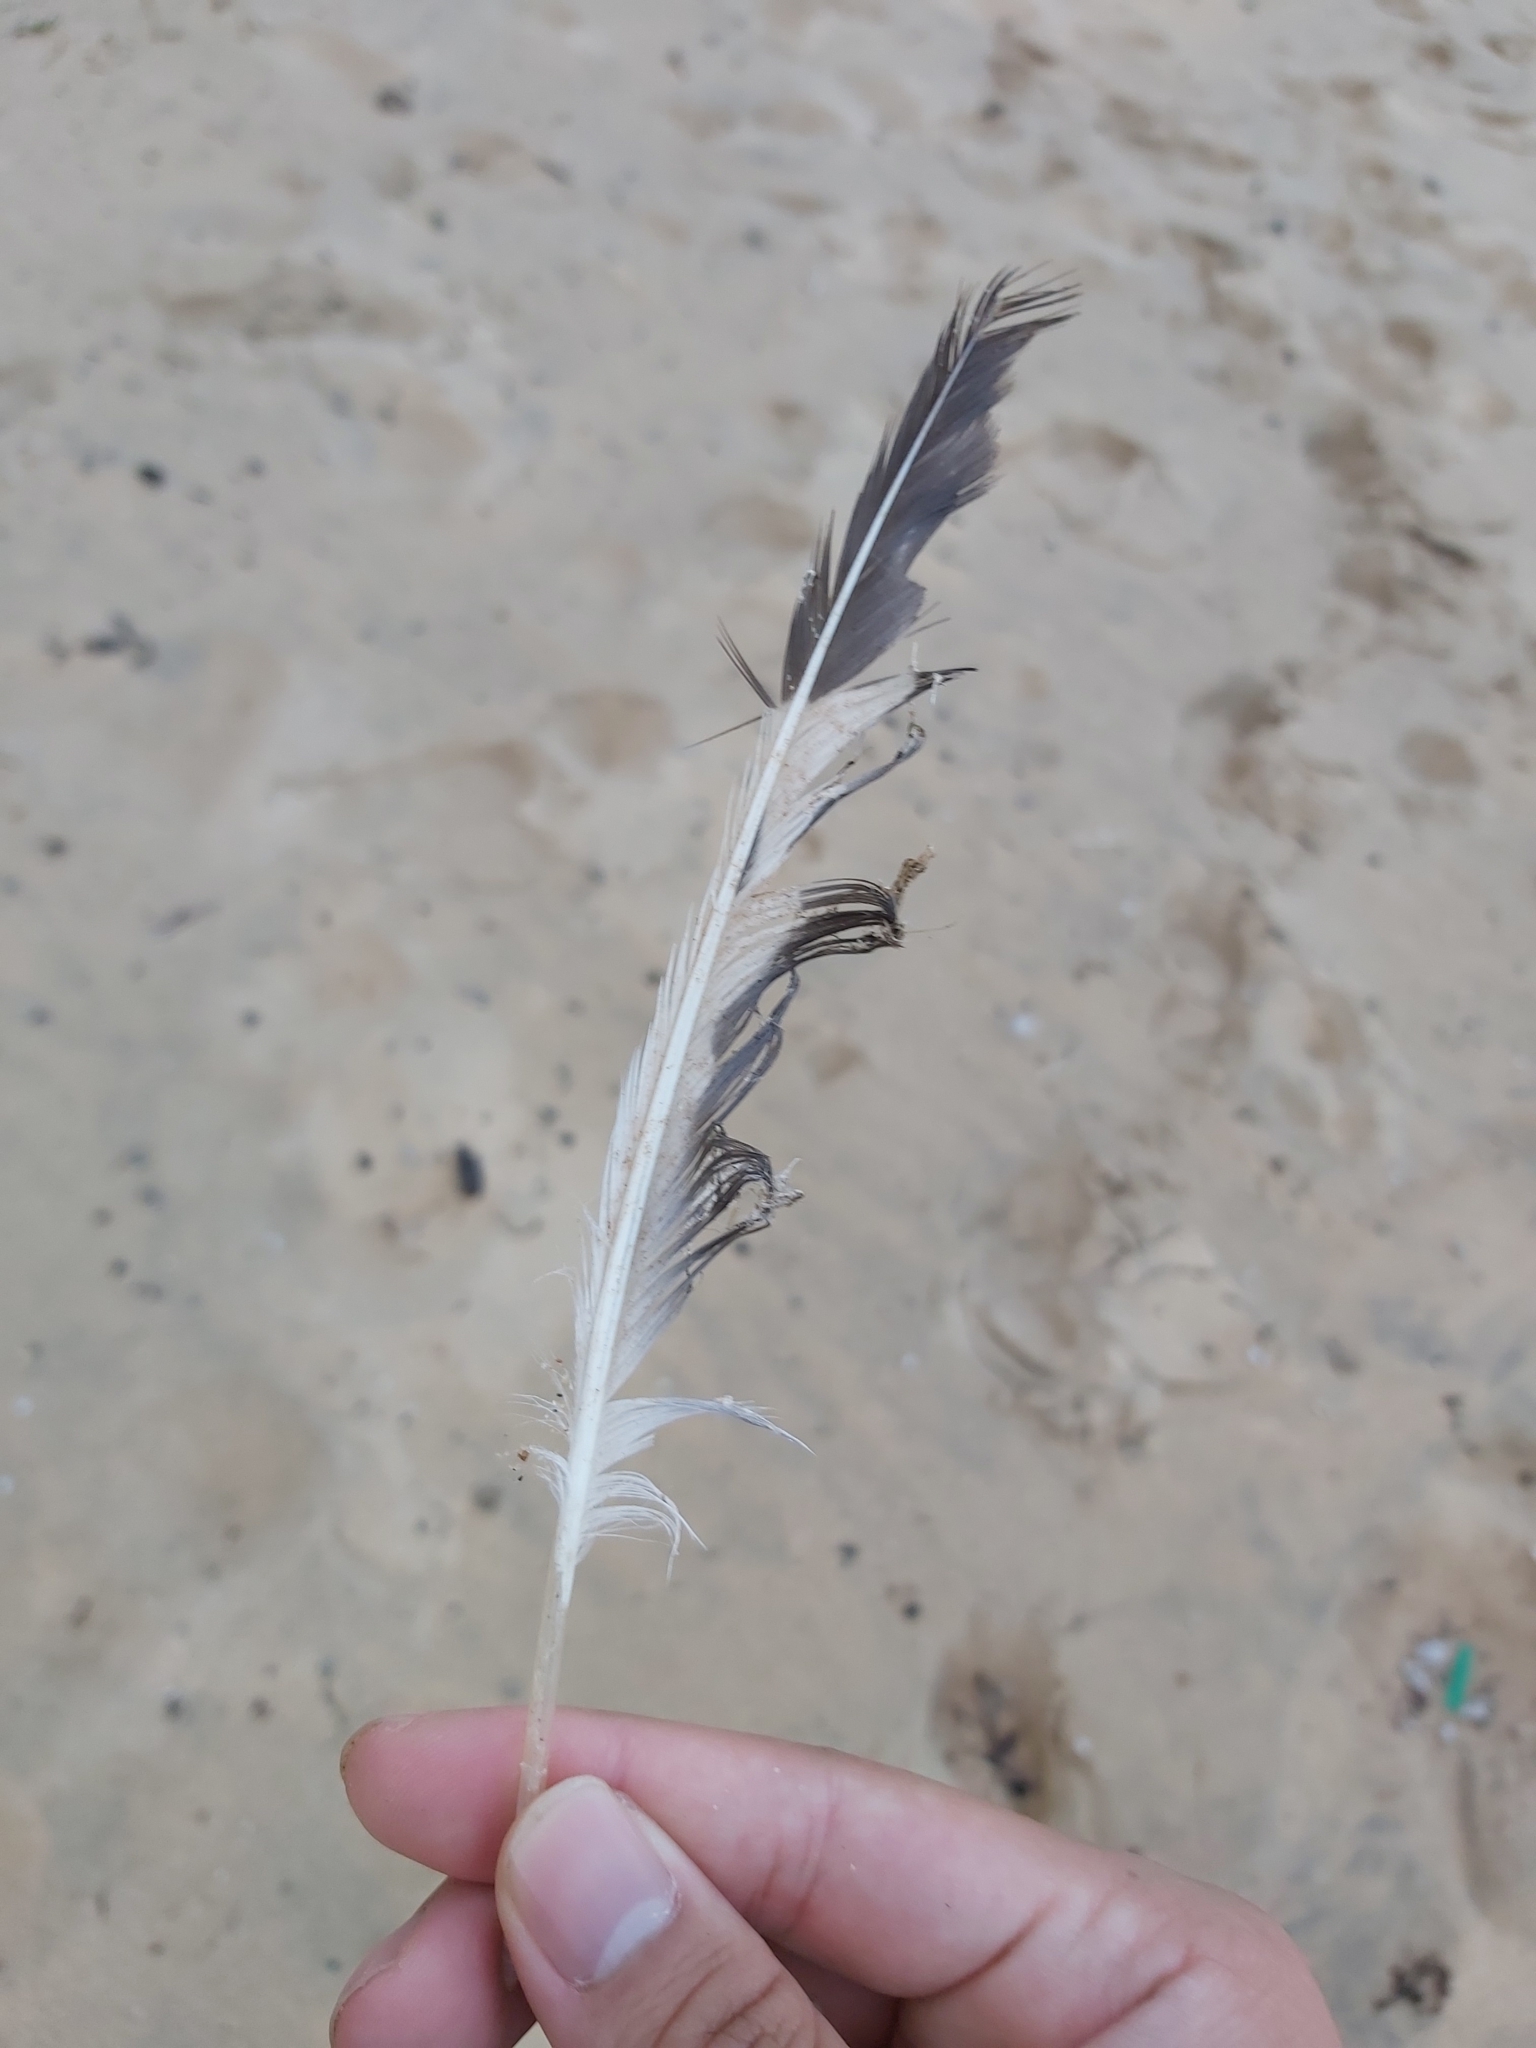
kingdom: Animalia
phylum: Chordata
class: Aves
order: Charadriiformes
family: Laridae
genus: Chroicocephalus
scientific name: Chroicocephalus novaehollandiae
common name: Silver gull
